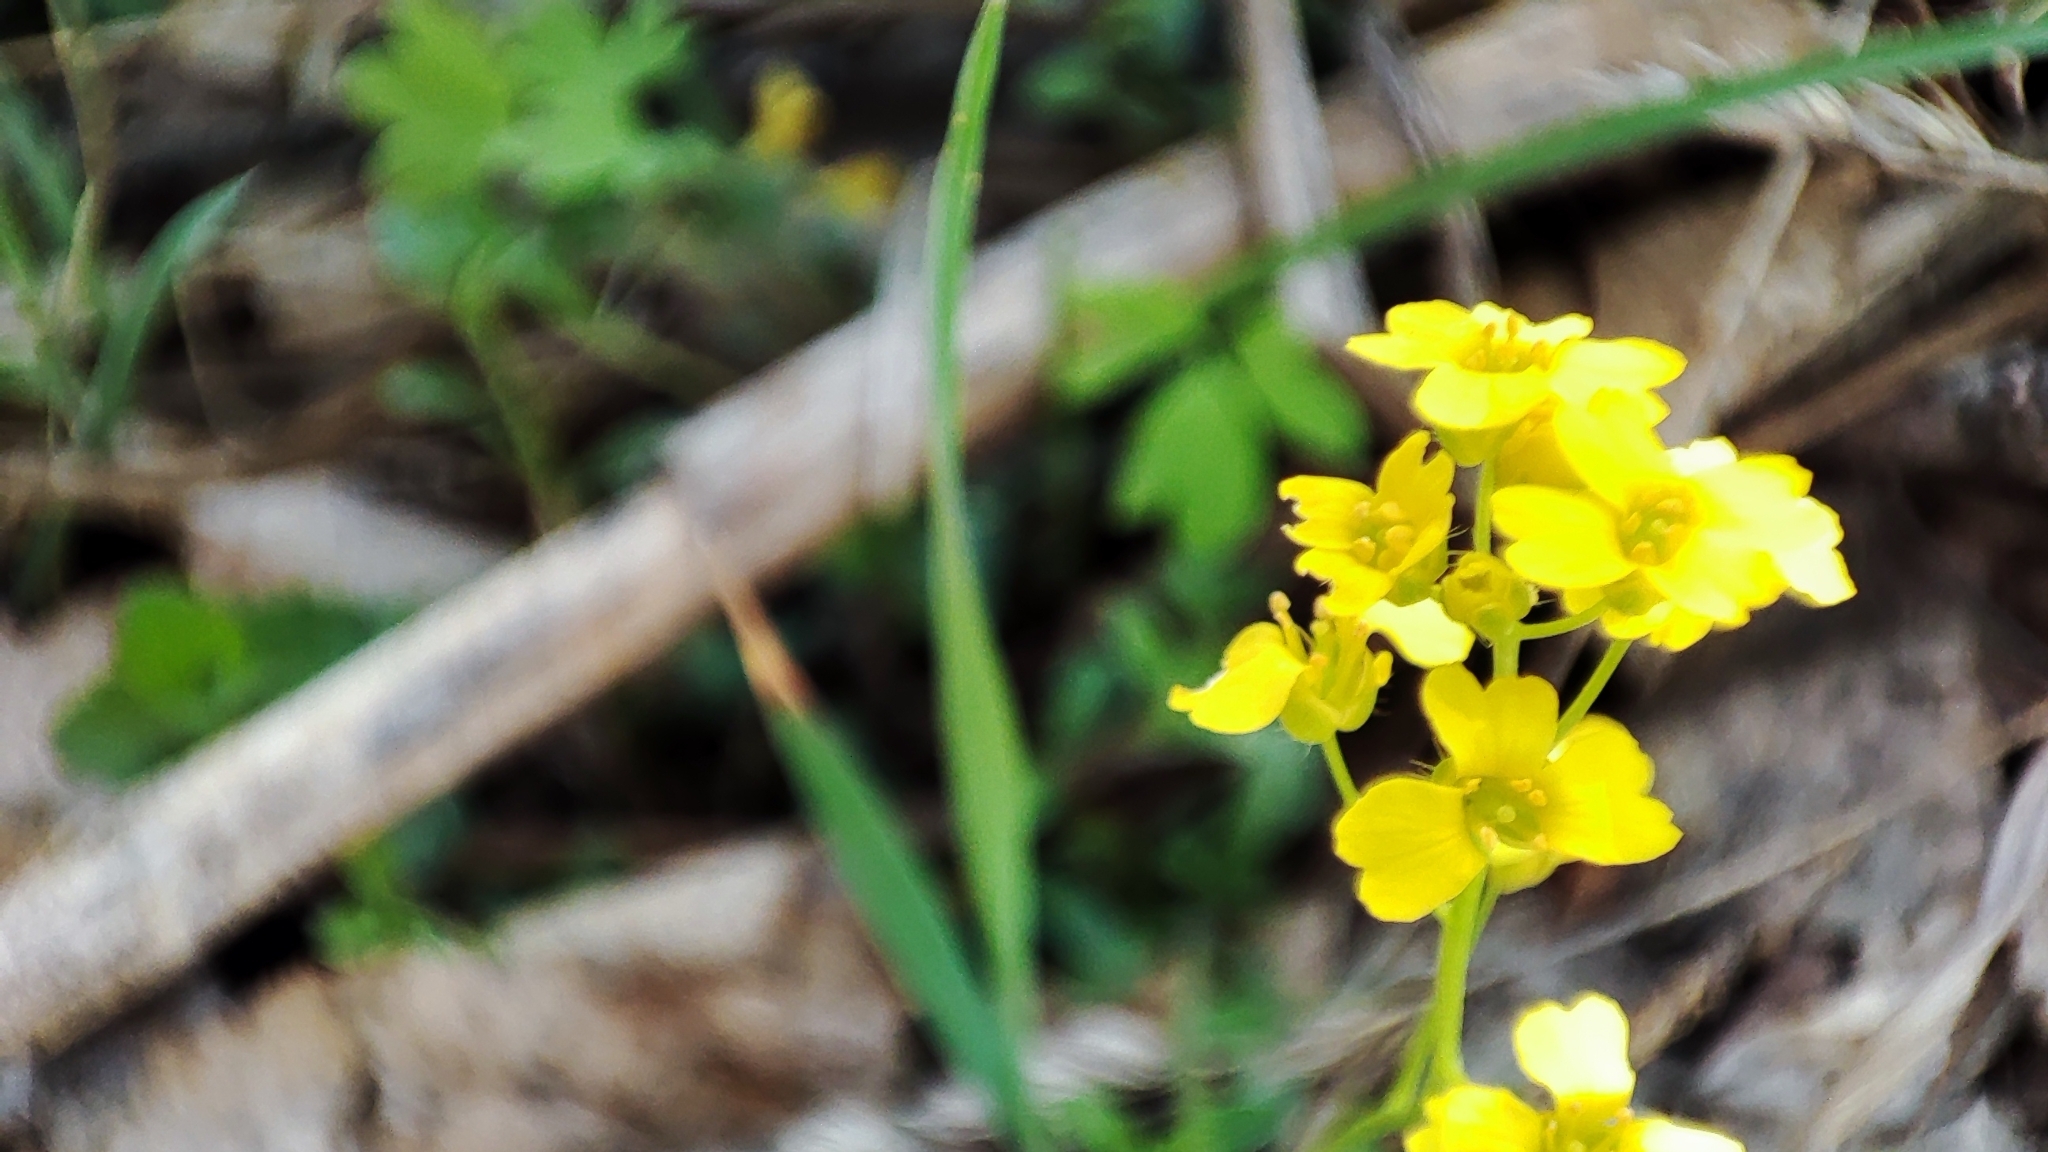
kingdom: Plantae
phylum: Tracheophyta
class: Magnoliopsida
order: Brassicales
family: Brassicaceae
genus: Draba
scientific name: Draba sibirica
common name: Siberian draba
